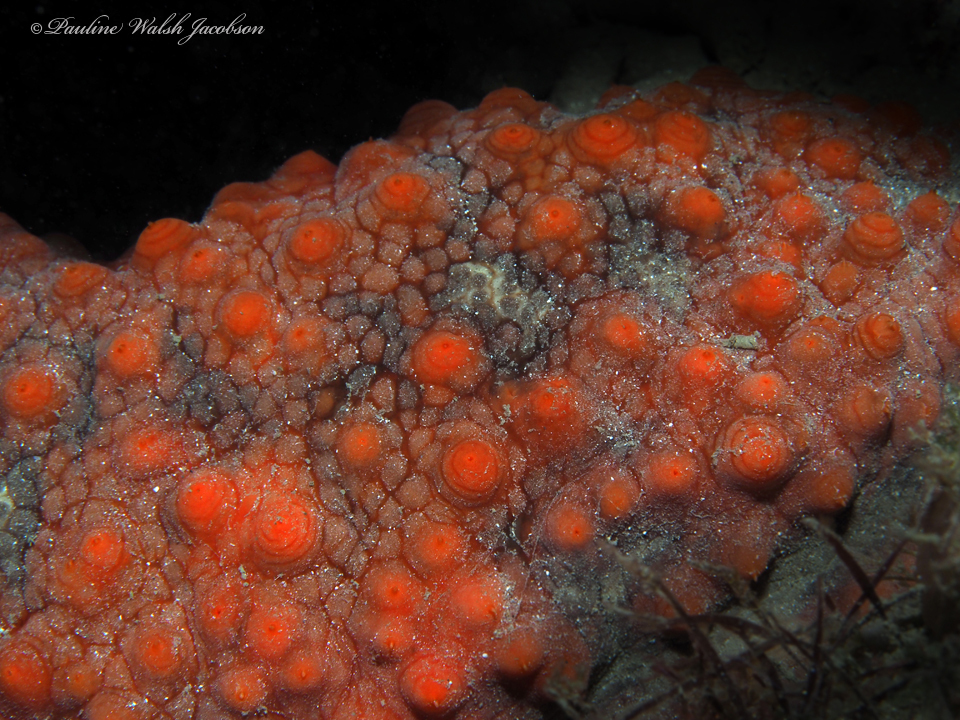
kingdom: Animalia
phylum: Echinodermata
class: Holothuroidea
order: Synallactida
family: Stichopodidae
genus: Isostichopus
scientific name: Isostichopus badionotus
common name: Chocolate chip cucumber
